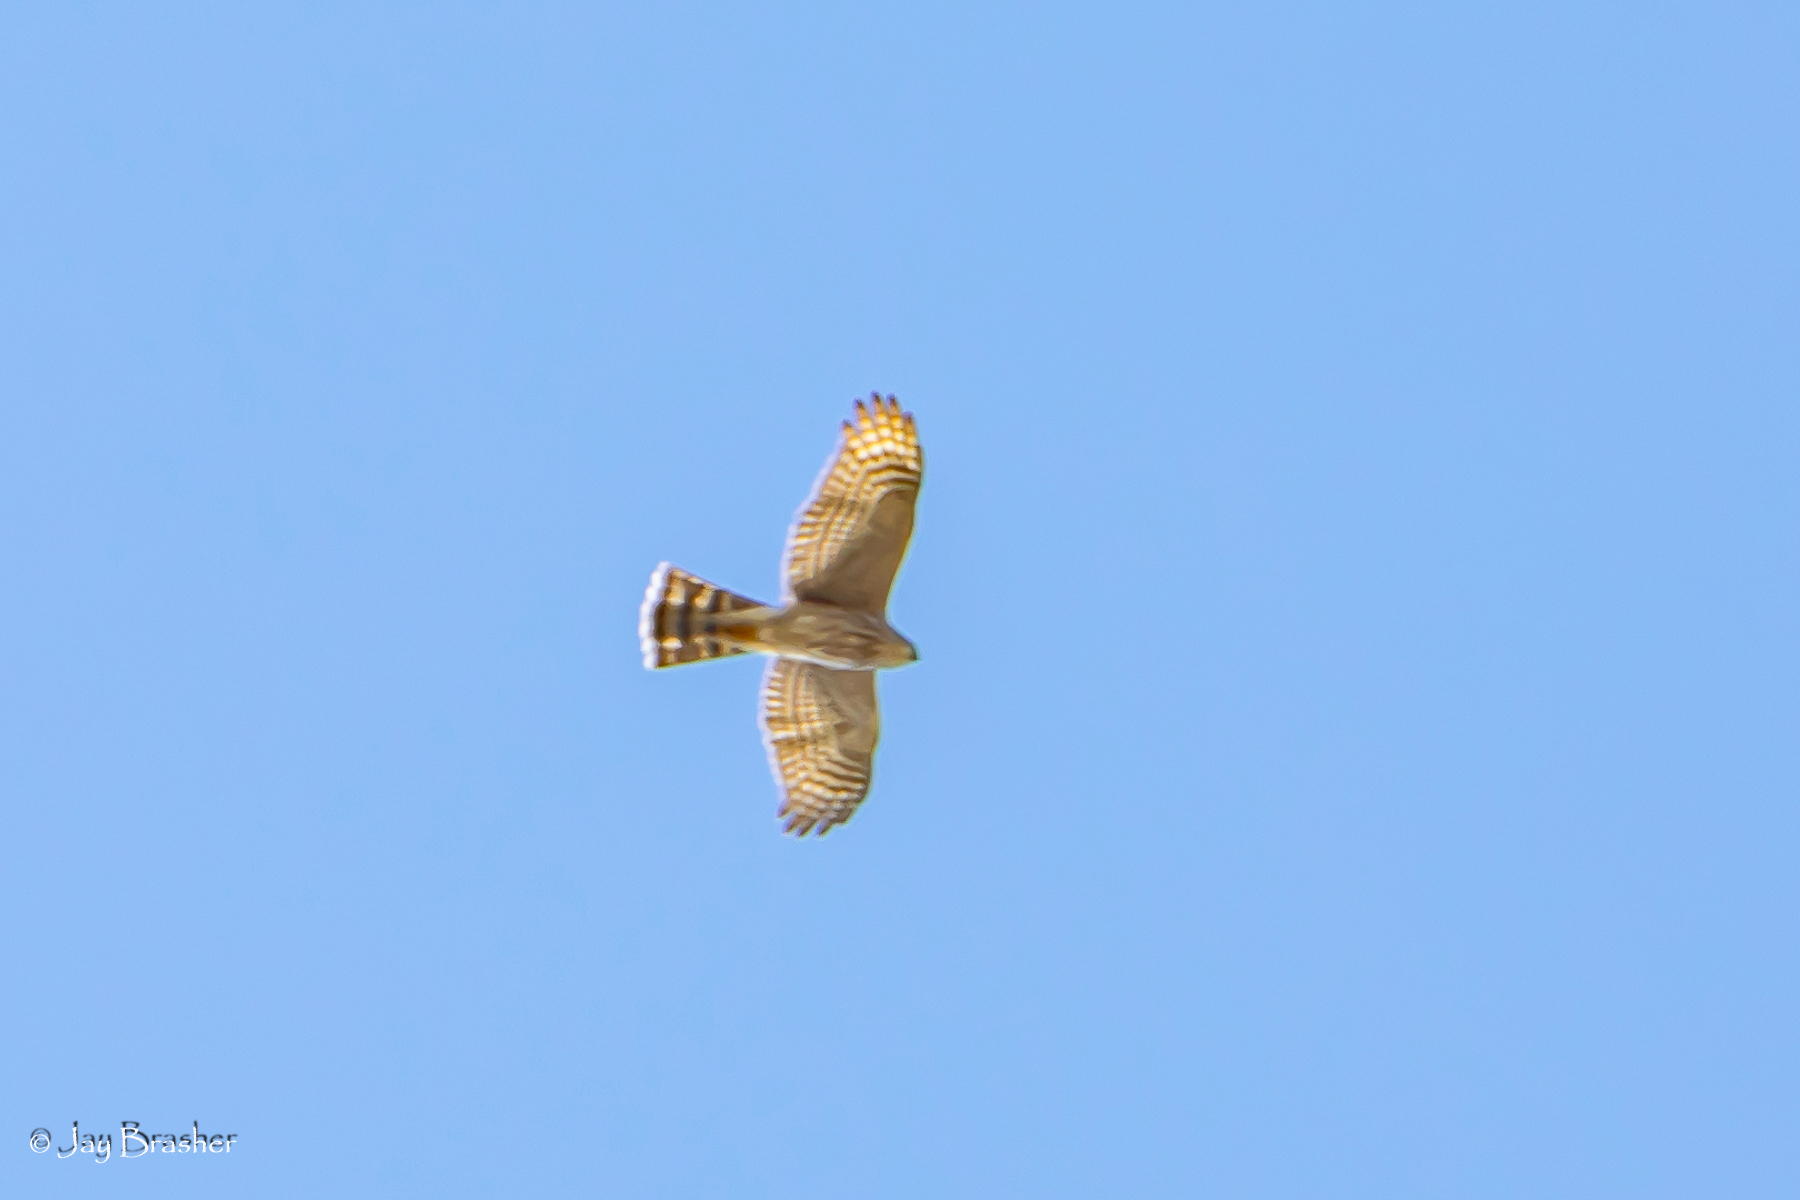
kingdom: Animalia
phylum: Chordata
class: Aves
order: Accipitriformes
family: Accipitridae
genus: Accipiter
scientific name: Accipiter striatus
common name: Sharp-shinned hawk
